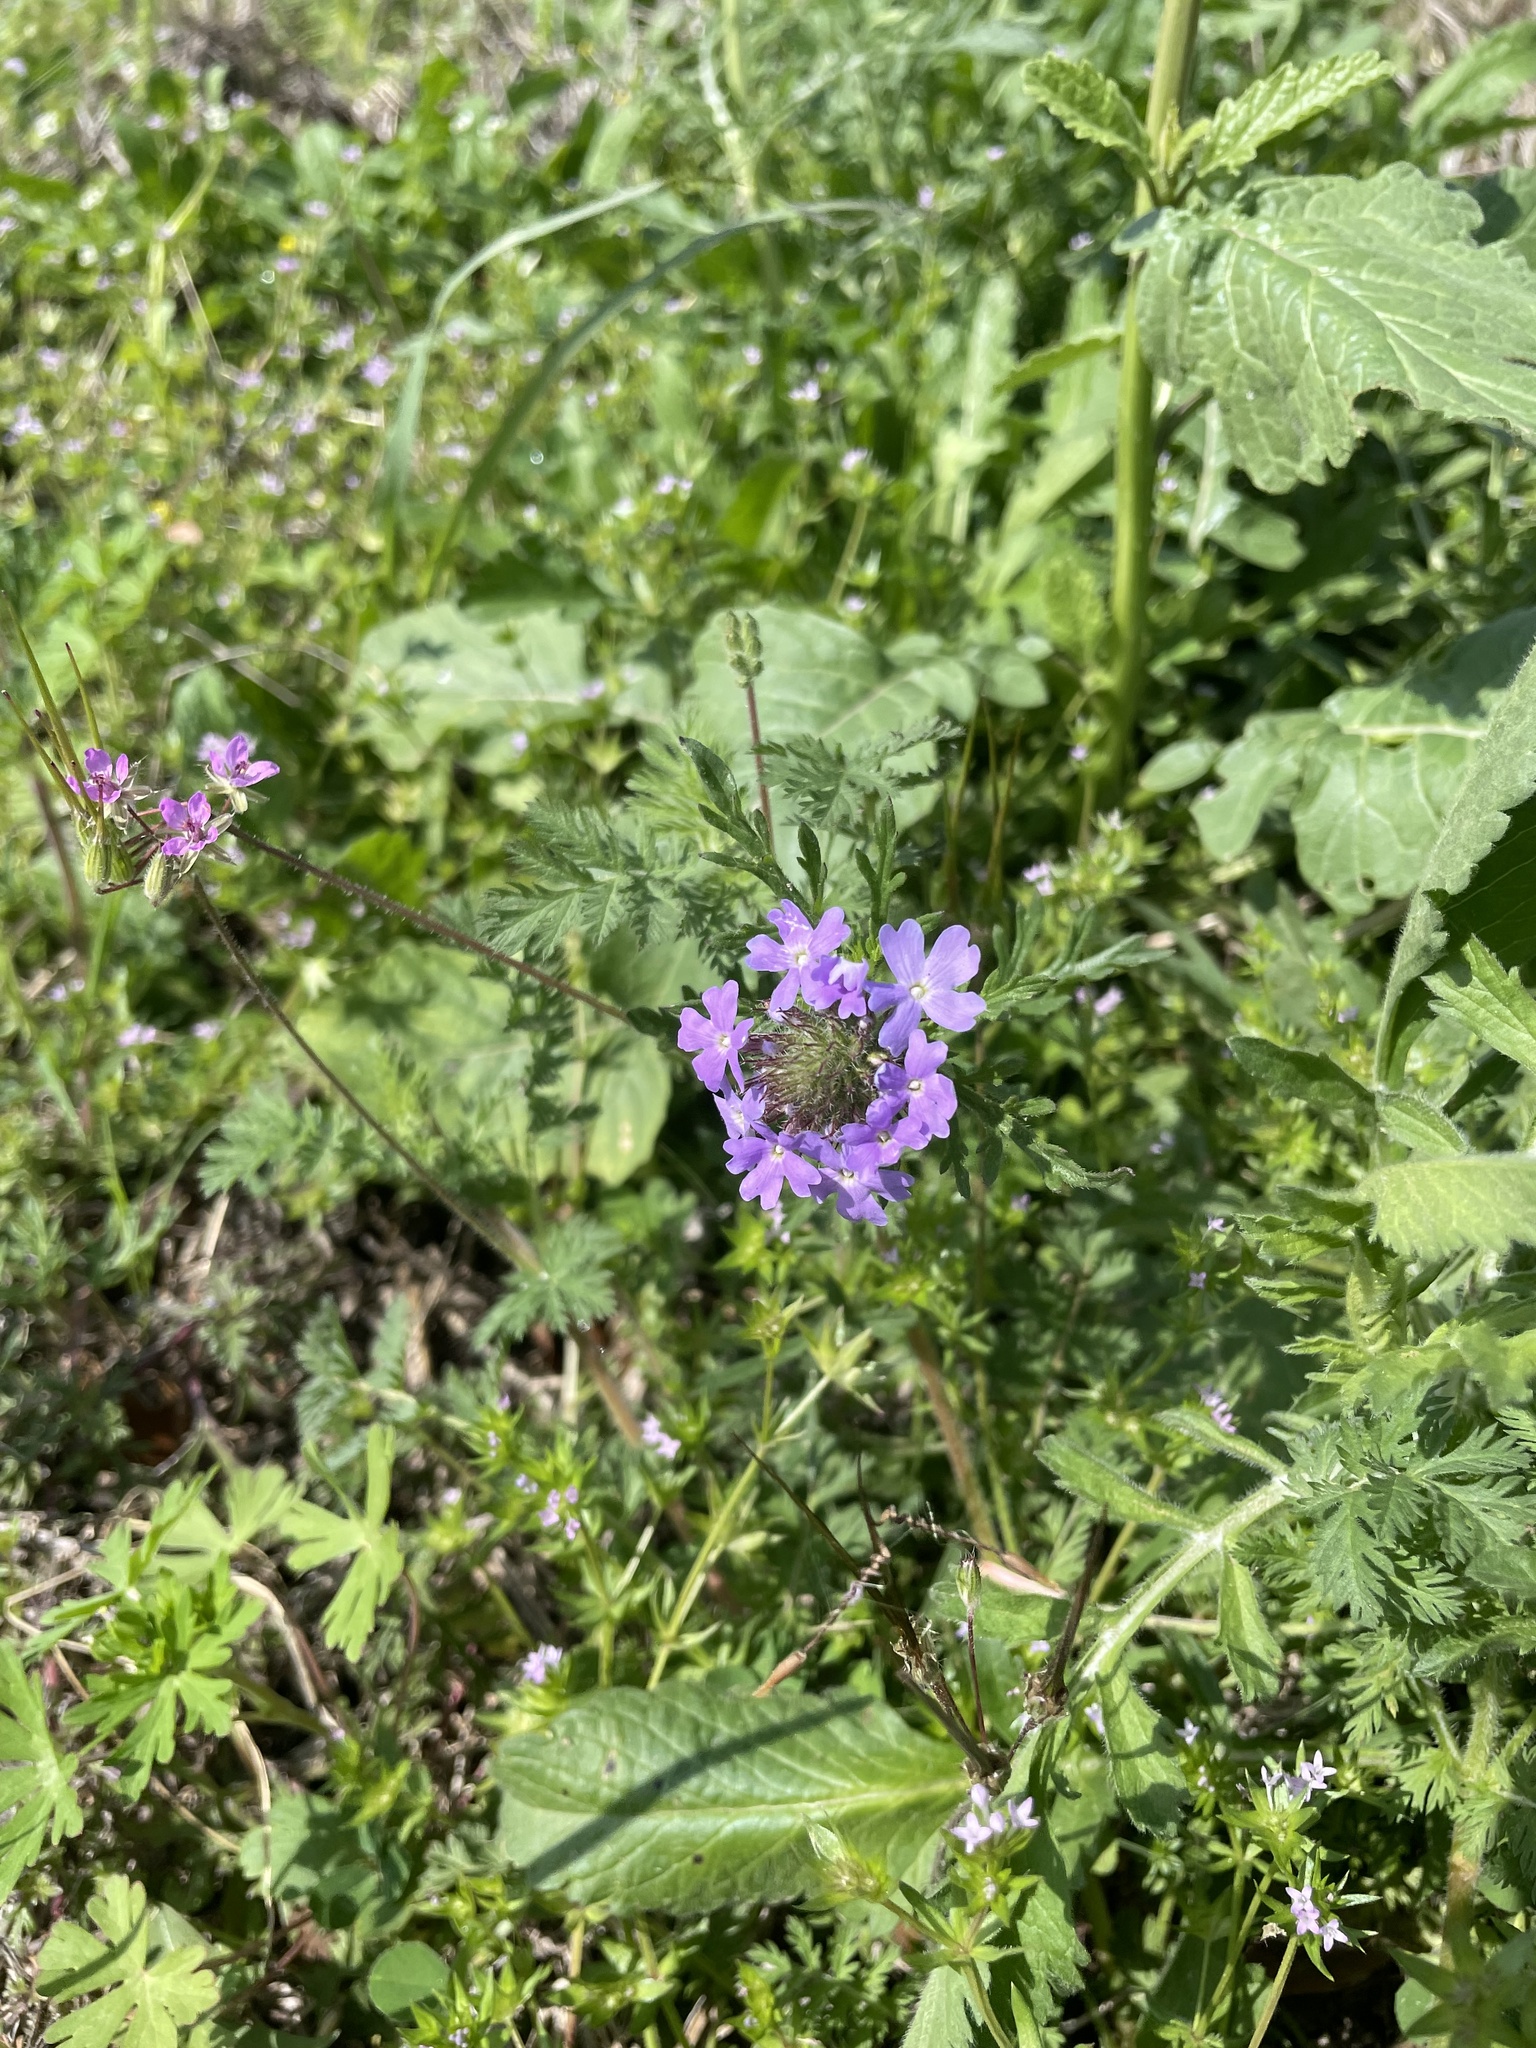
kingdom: Plantae
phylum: Tracheophyta
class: Magnoliopsida
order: Lamiales
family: Verbenaceae
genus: Verbena
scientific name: Verbena bipinnatifida
